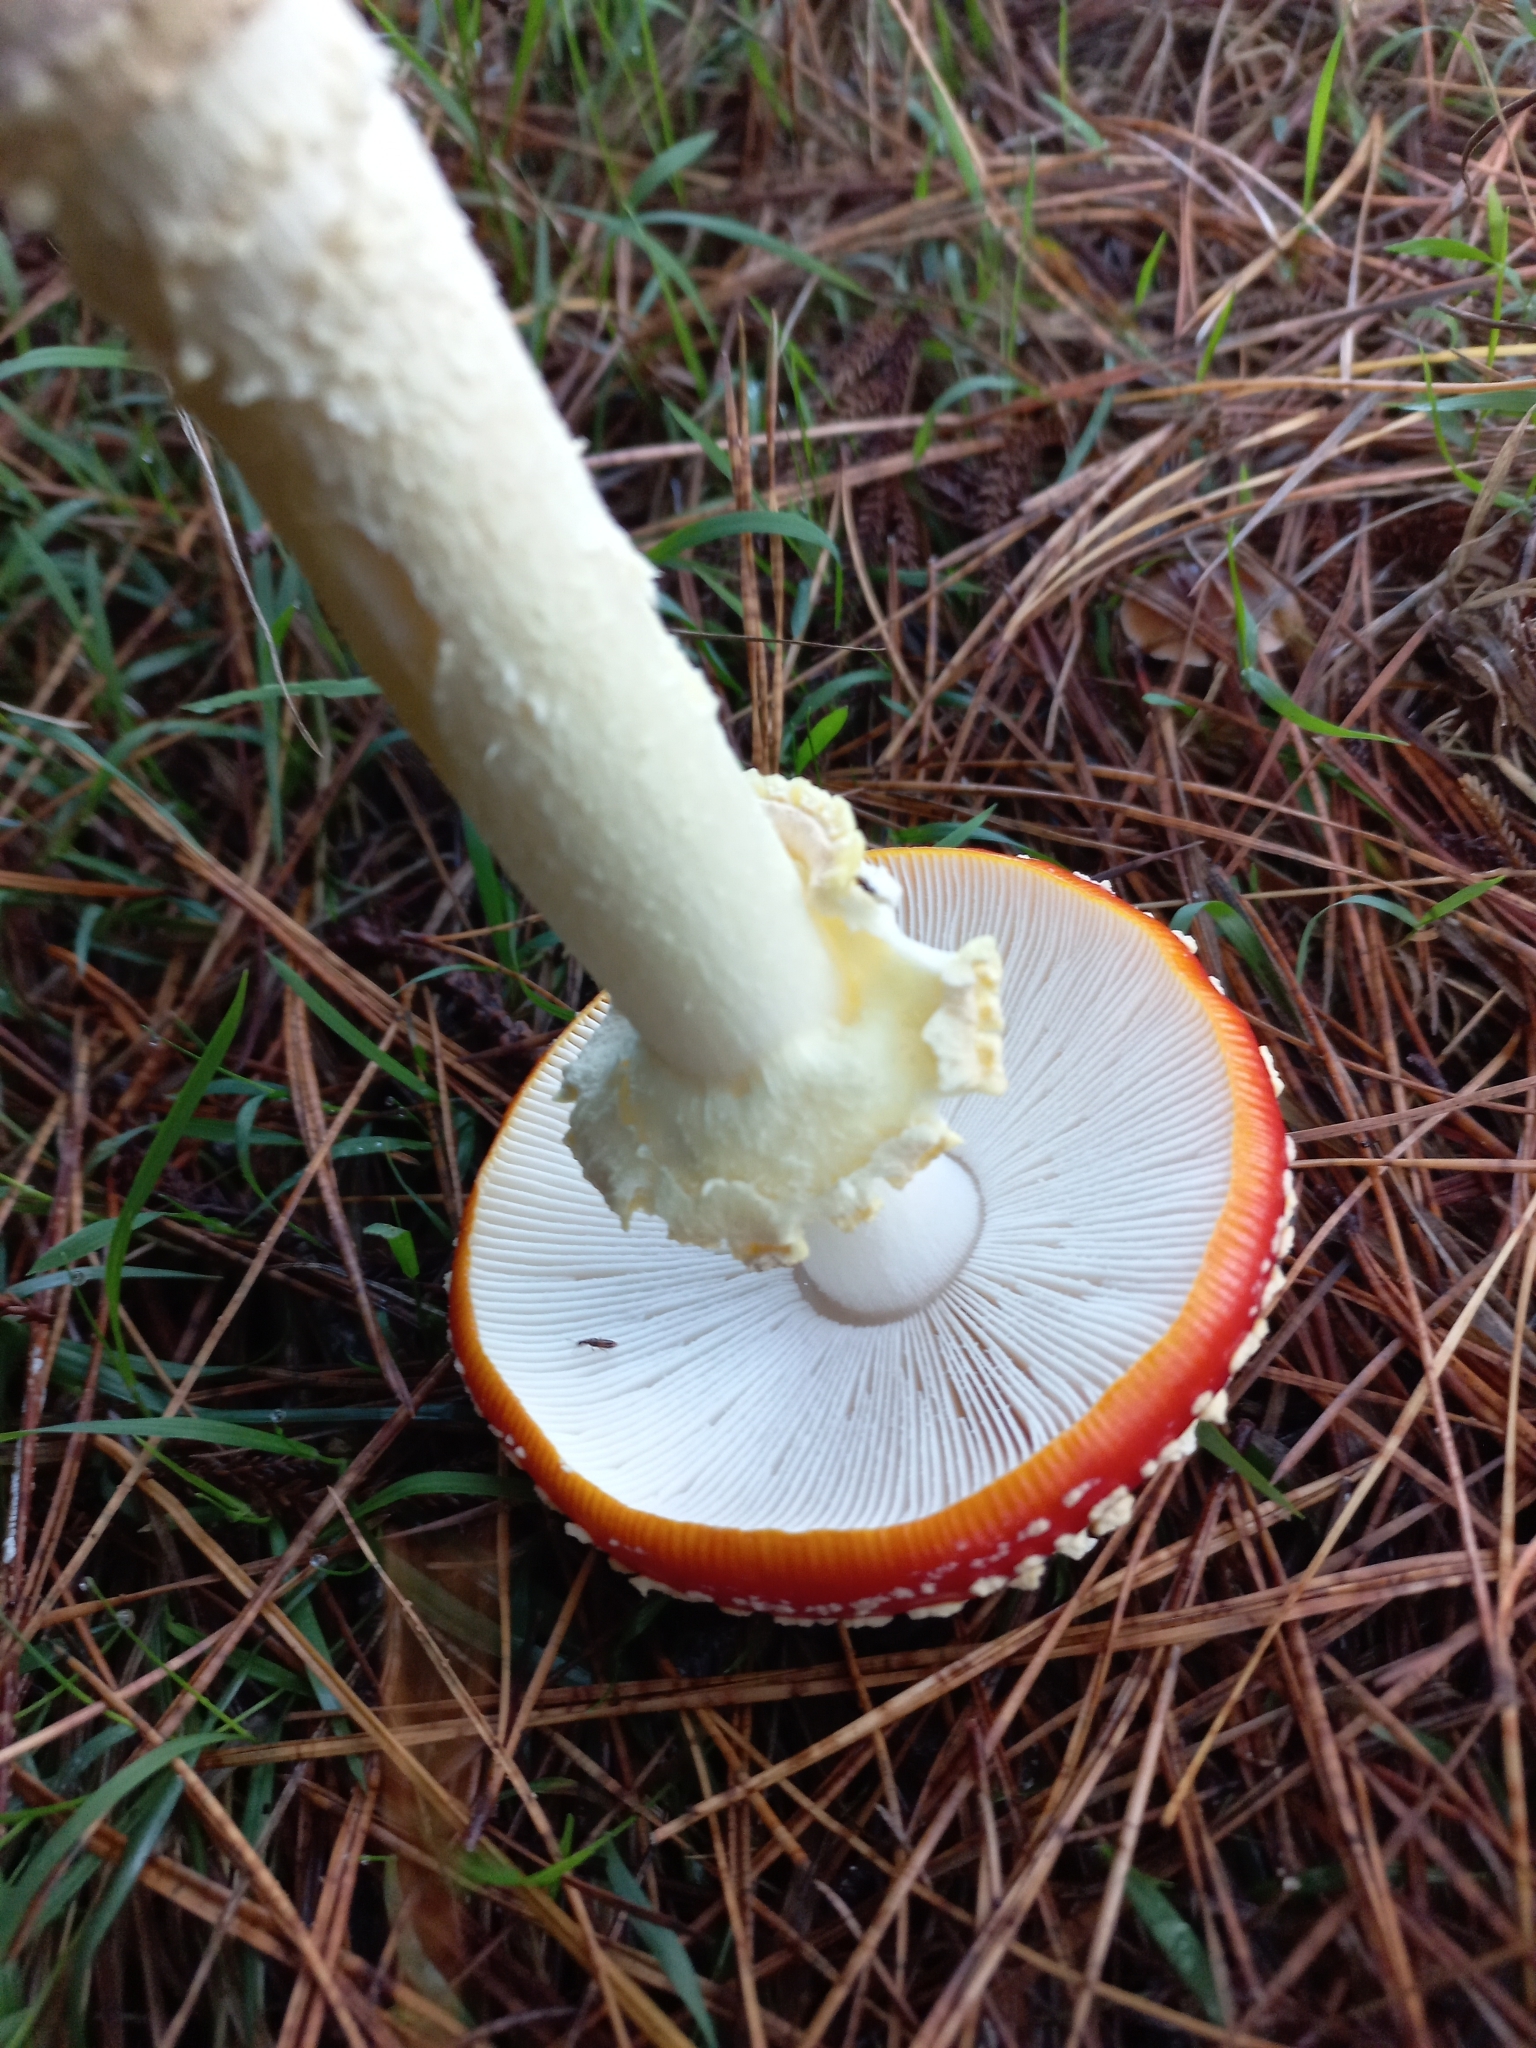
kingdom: Fungi
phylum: Basidiomycota
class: Agaricomycetes
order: Agaricales
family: Amanitaceae
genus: Amanita
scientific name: Amanita muscaria
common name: Fly agaric
